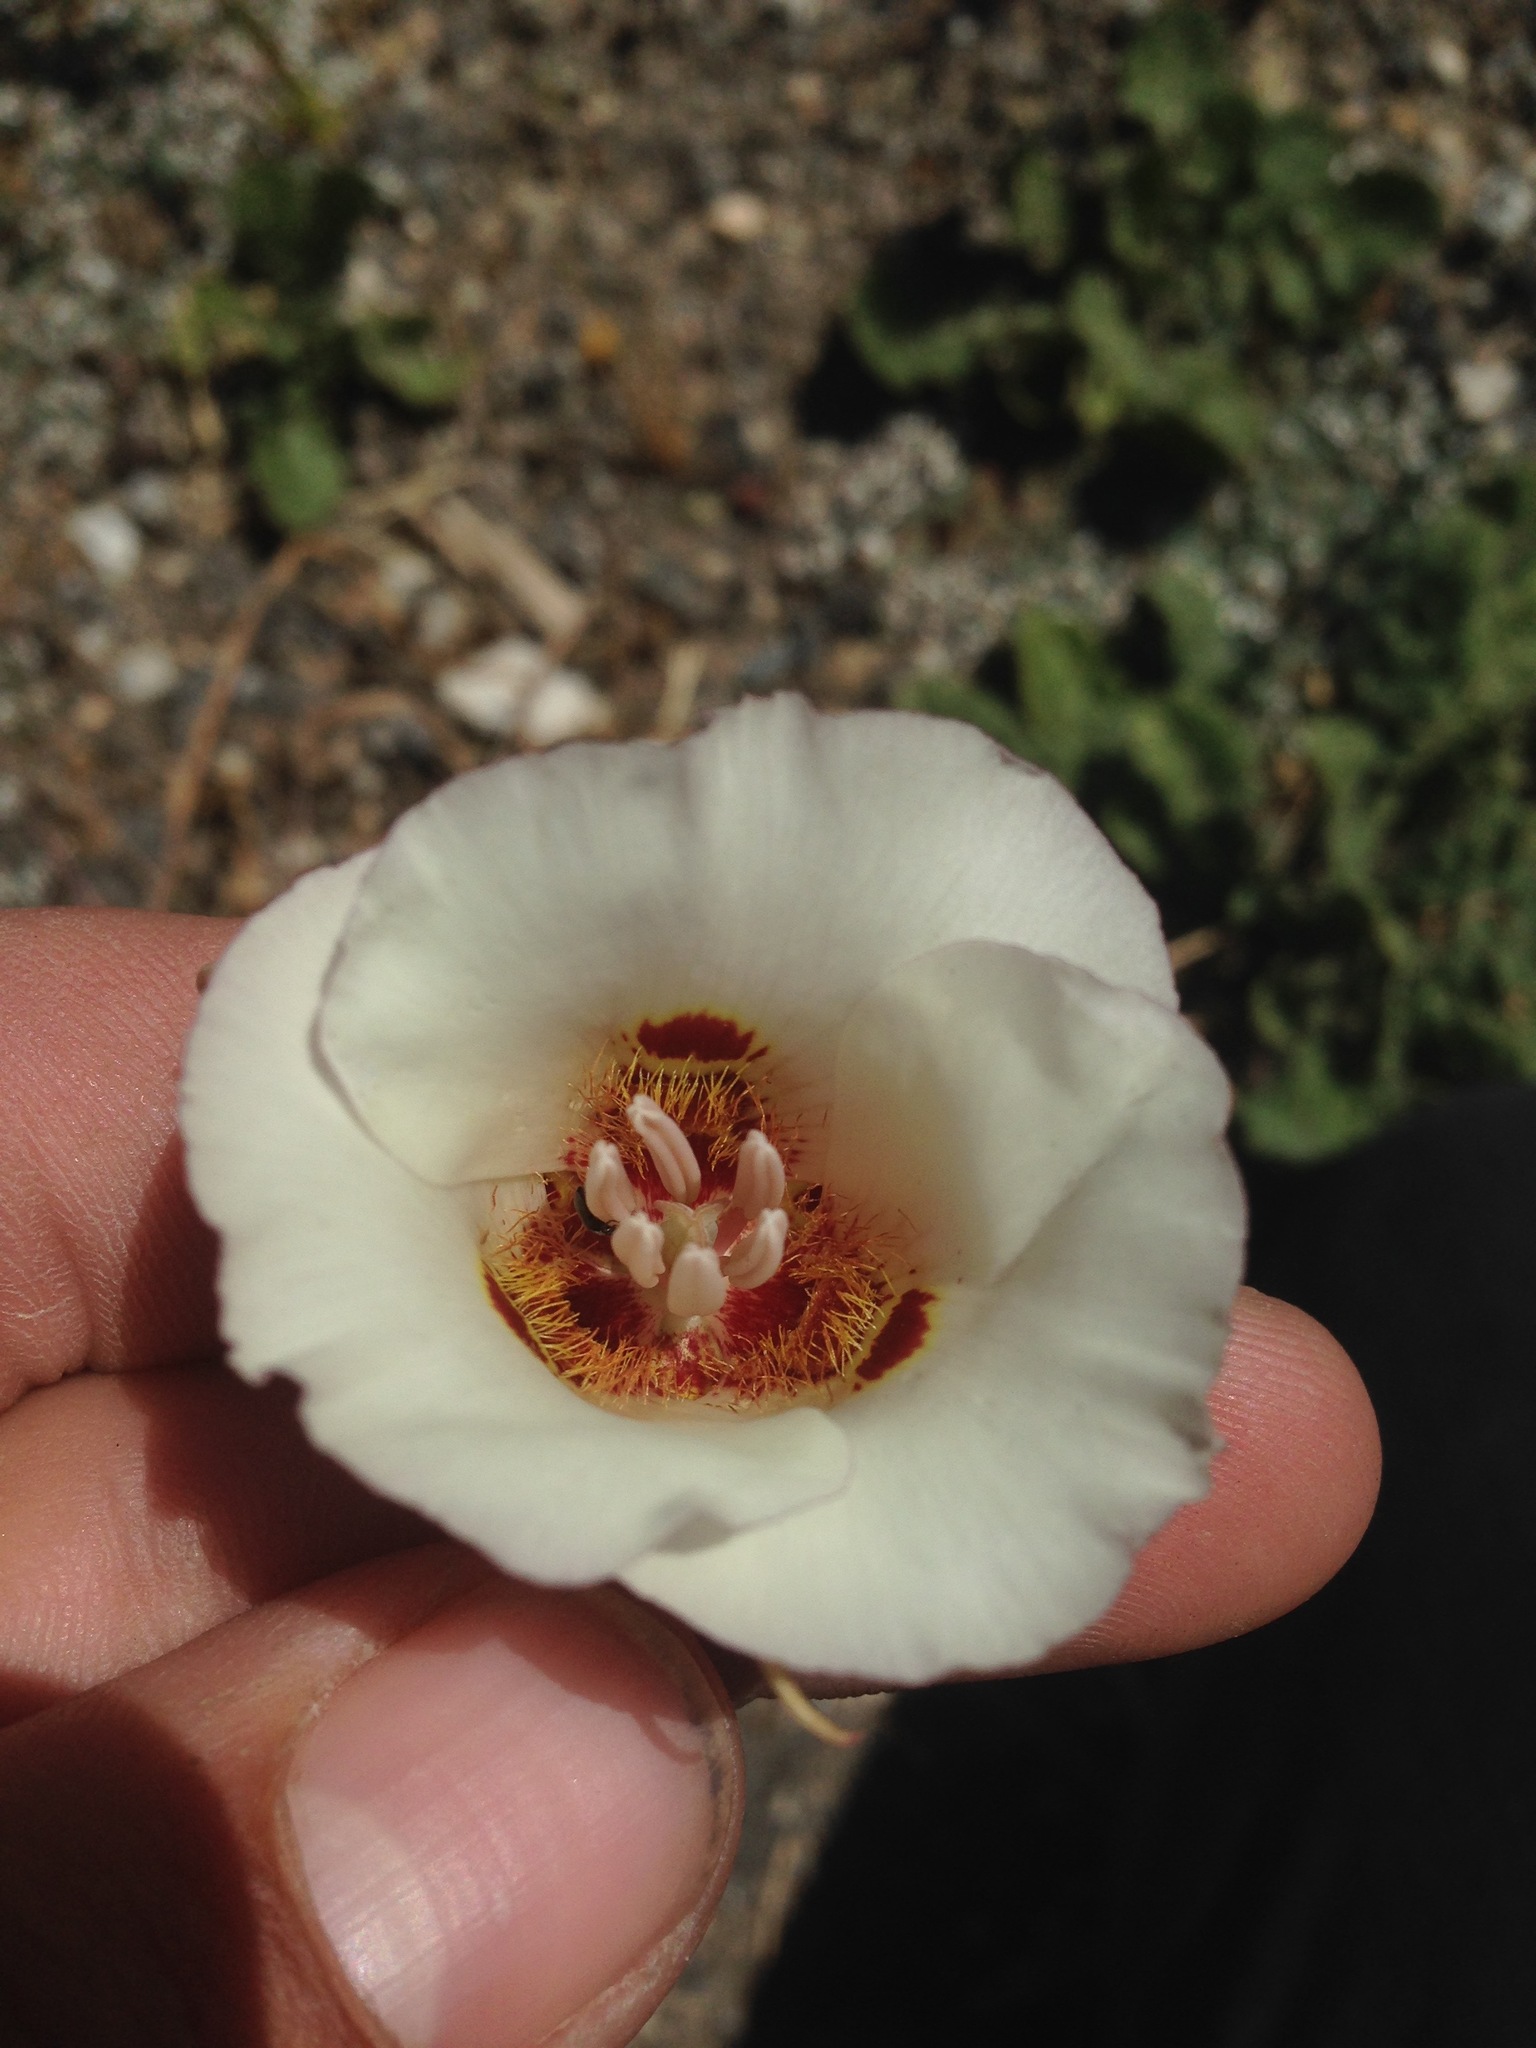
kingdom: Plantae
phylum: Tracheophyta
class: Liliopsida
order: Liliales
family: Liliaceae
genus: Calochortus
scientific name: Calochortus venustus
